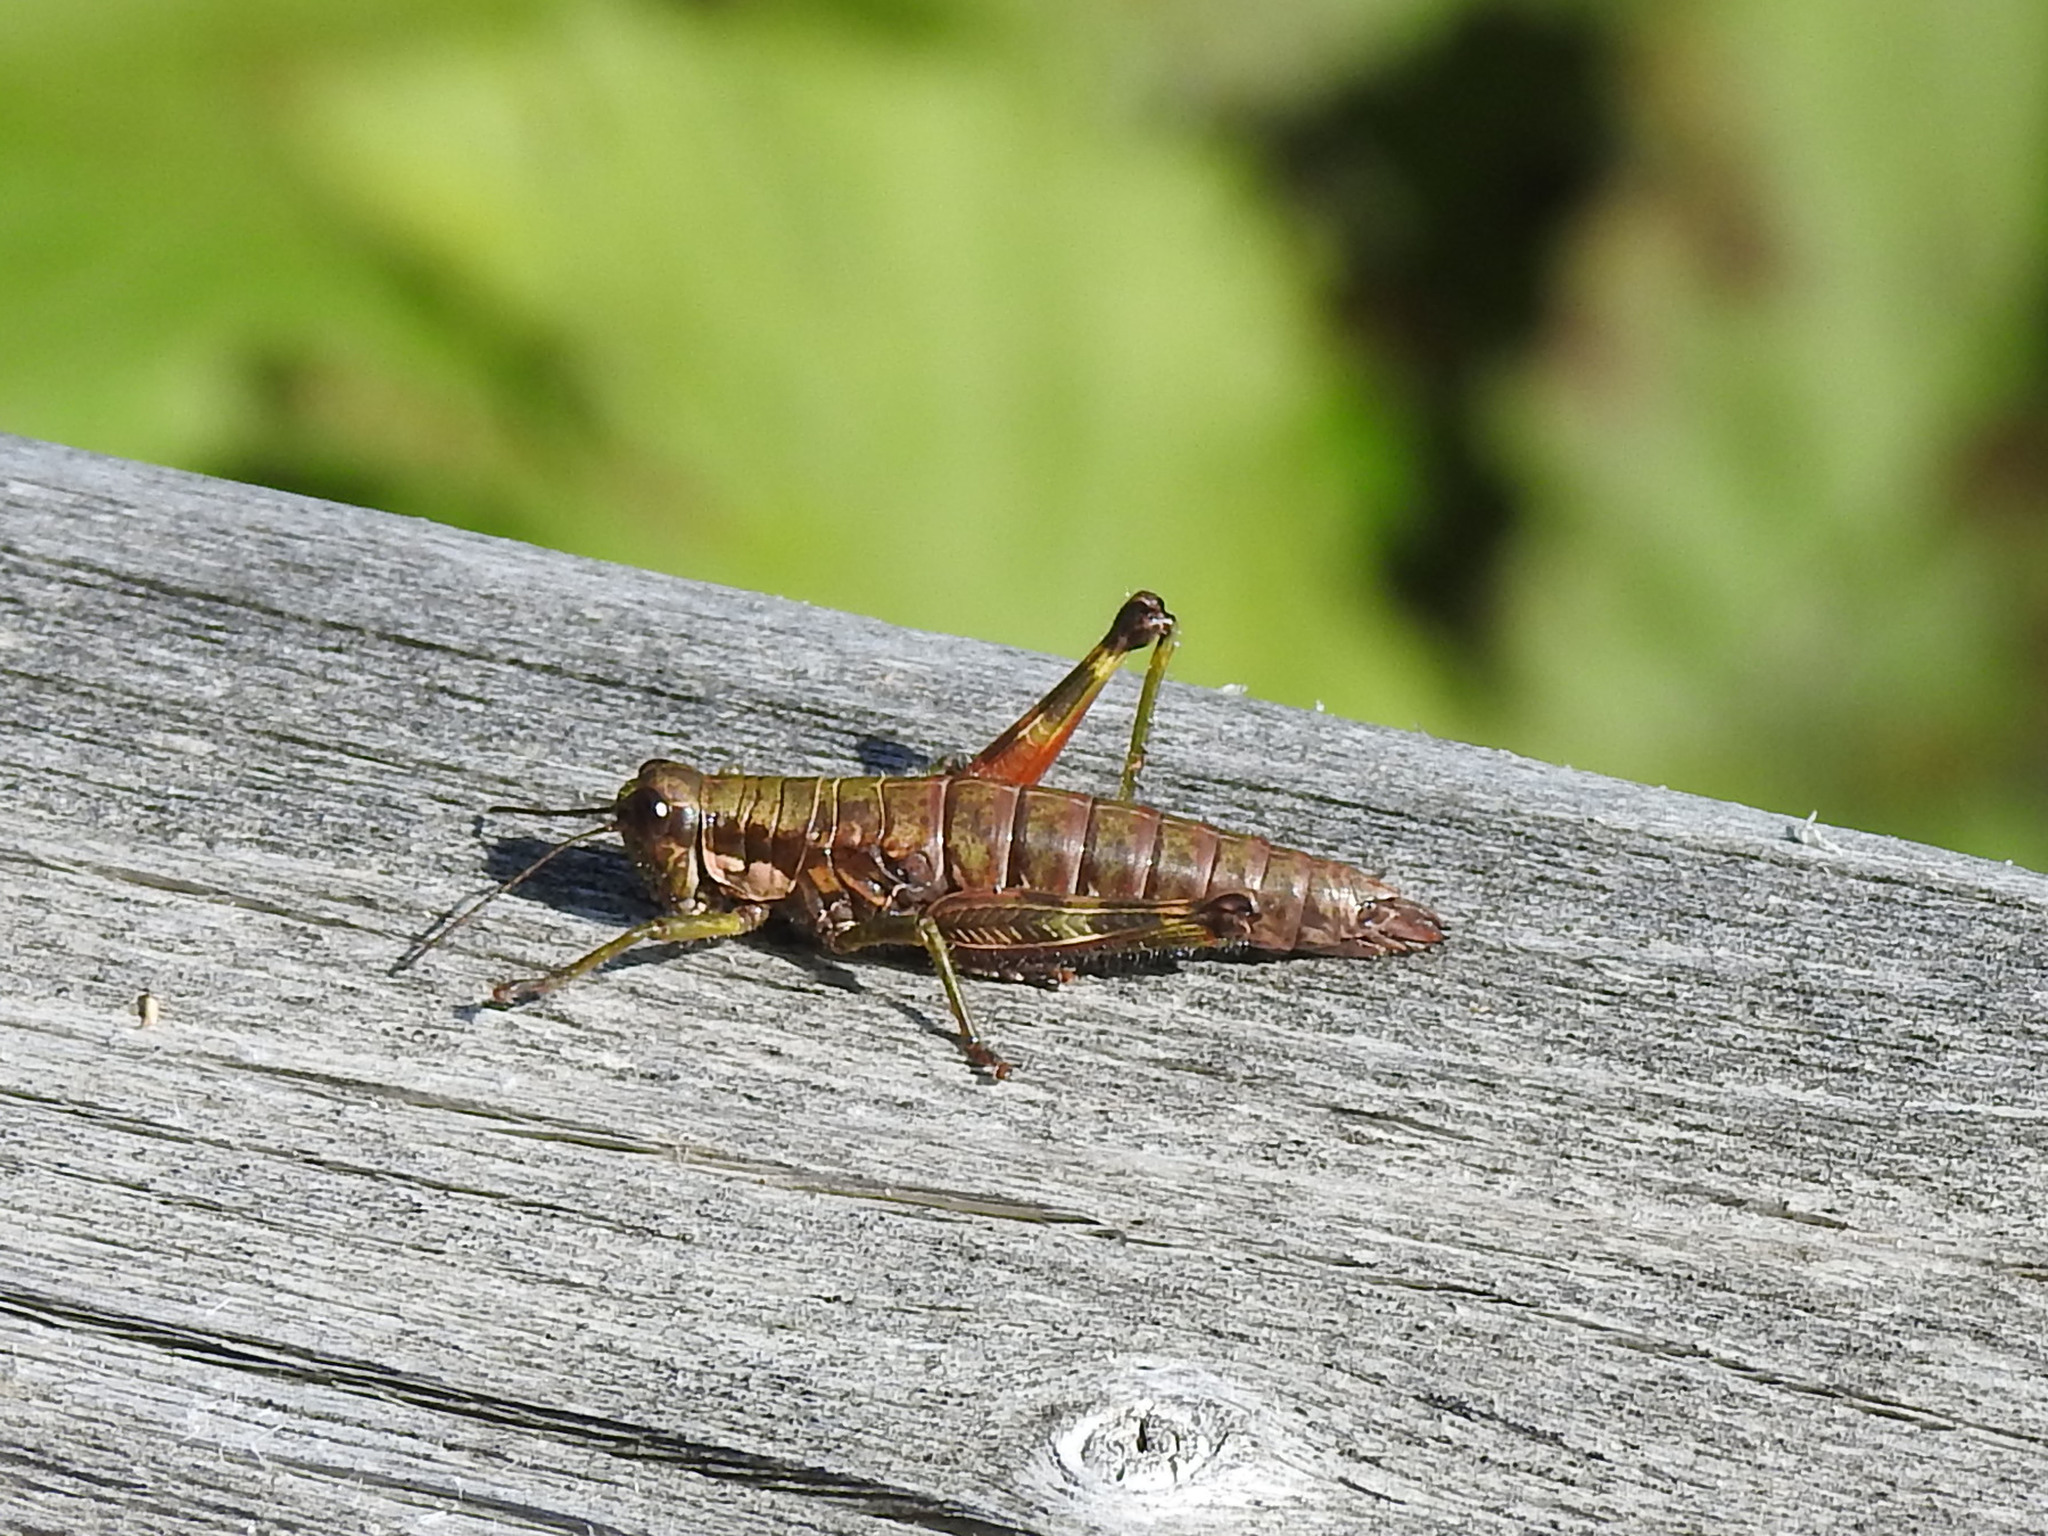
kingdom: Animalia
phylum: Arthropoda
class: Insecta
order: Orthoptera
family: Acrididae
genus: Booneacris
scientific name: Booneacris glacialis
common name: Wingless mountain grasshopper
